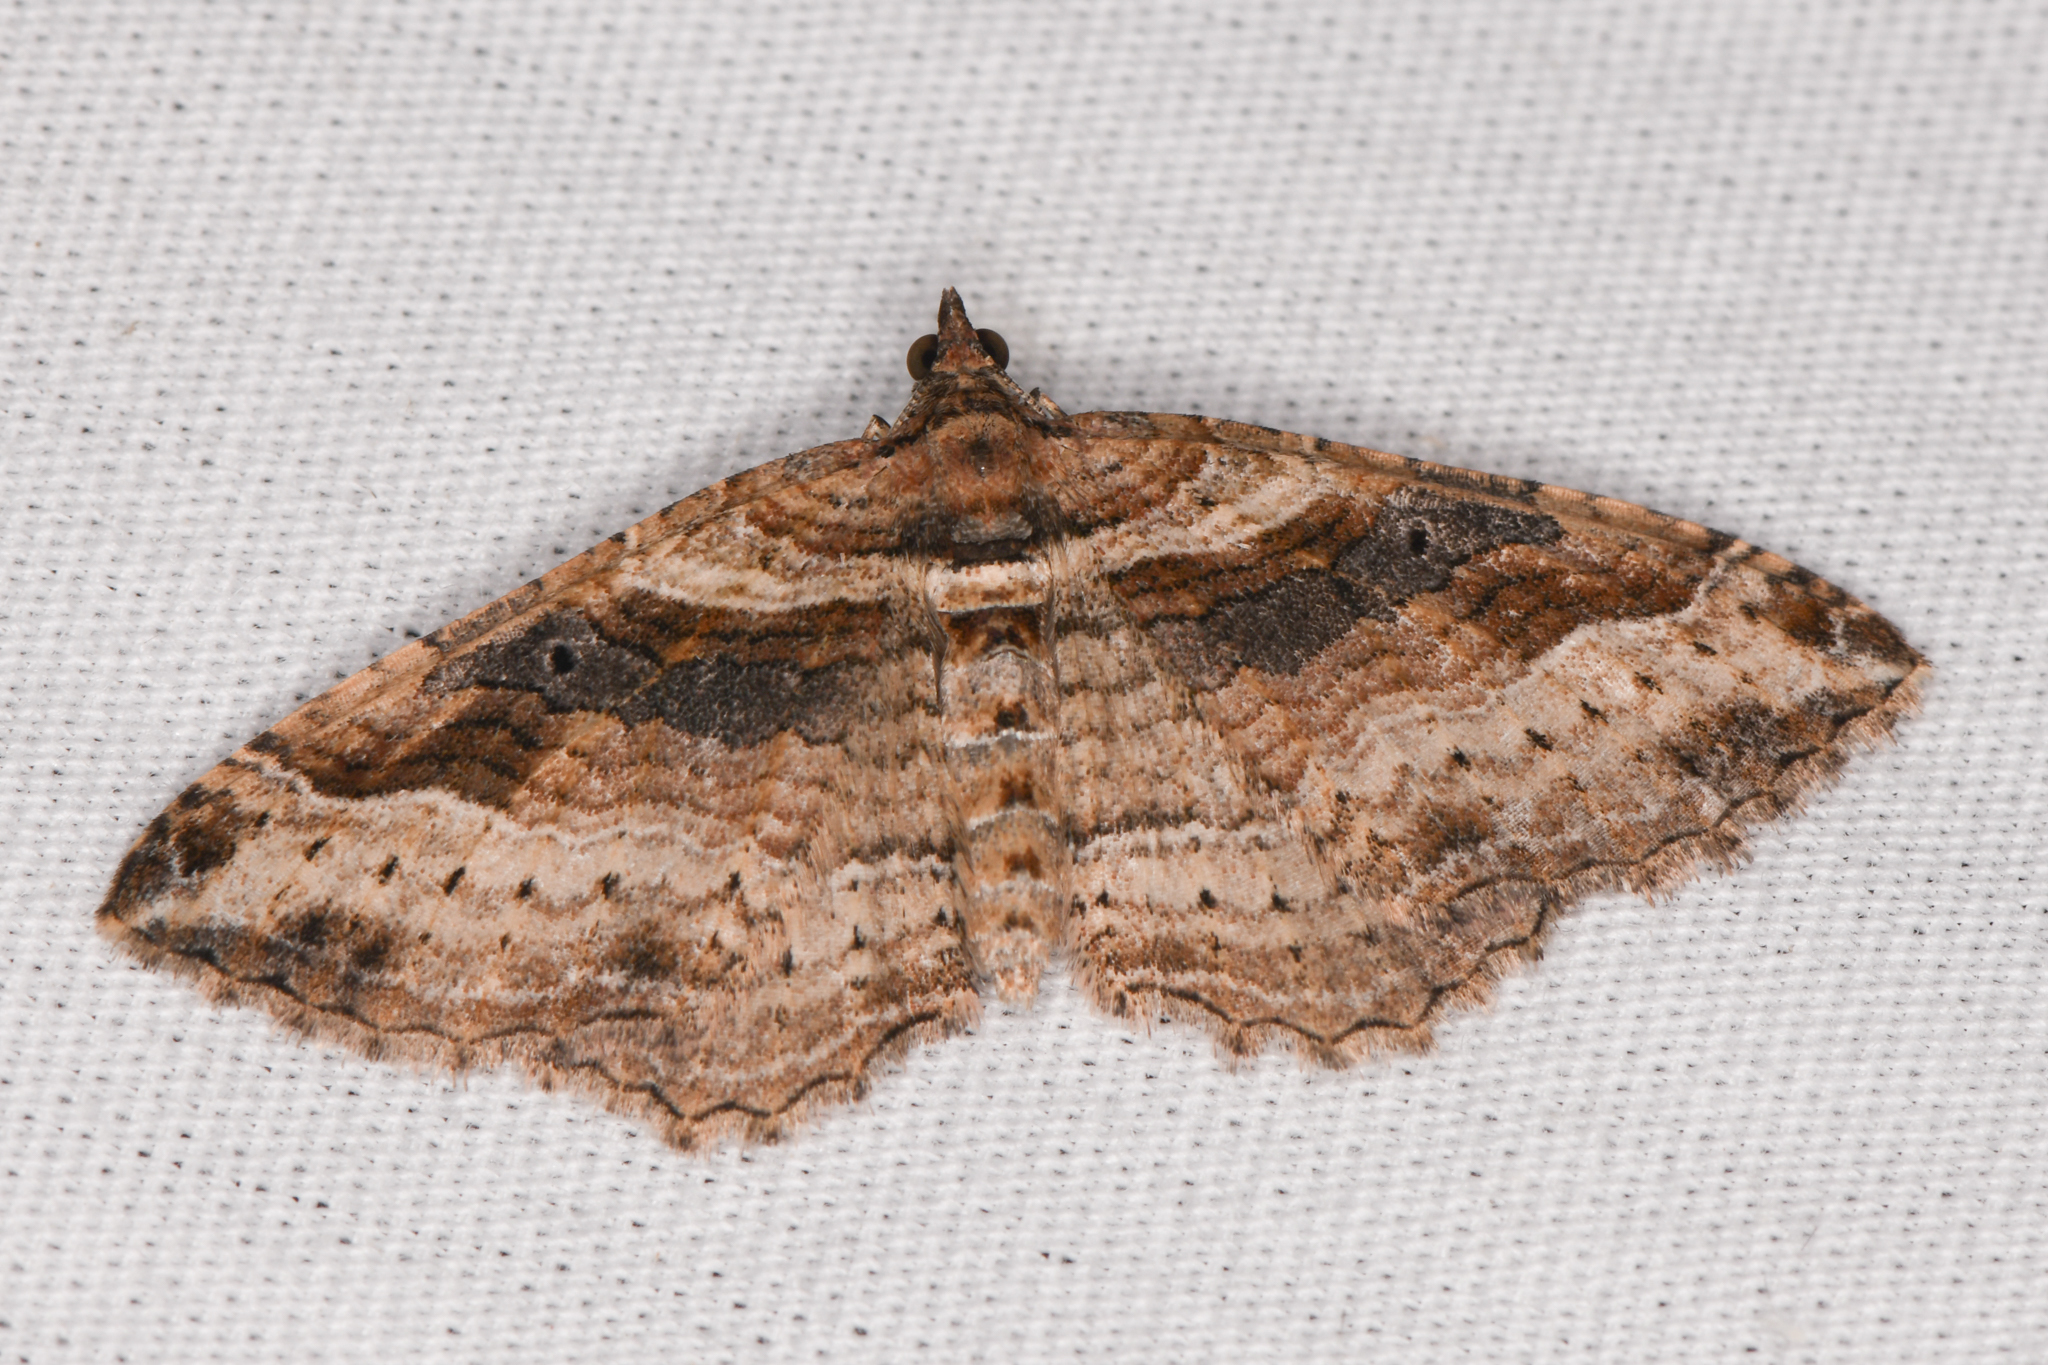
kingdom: Animalia
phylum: Arthropoda
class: Insecta
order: Lepidoptera
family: Geometridae
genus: Costaconvexa
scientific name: Costaconvexa centrostrigaria
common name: Bent-line carpet
